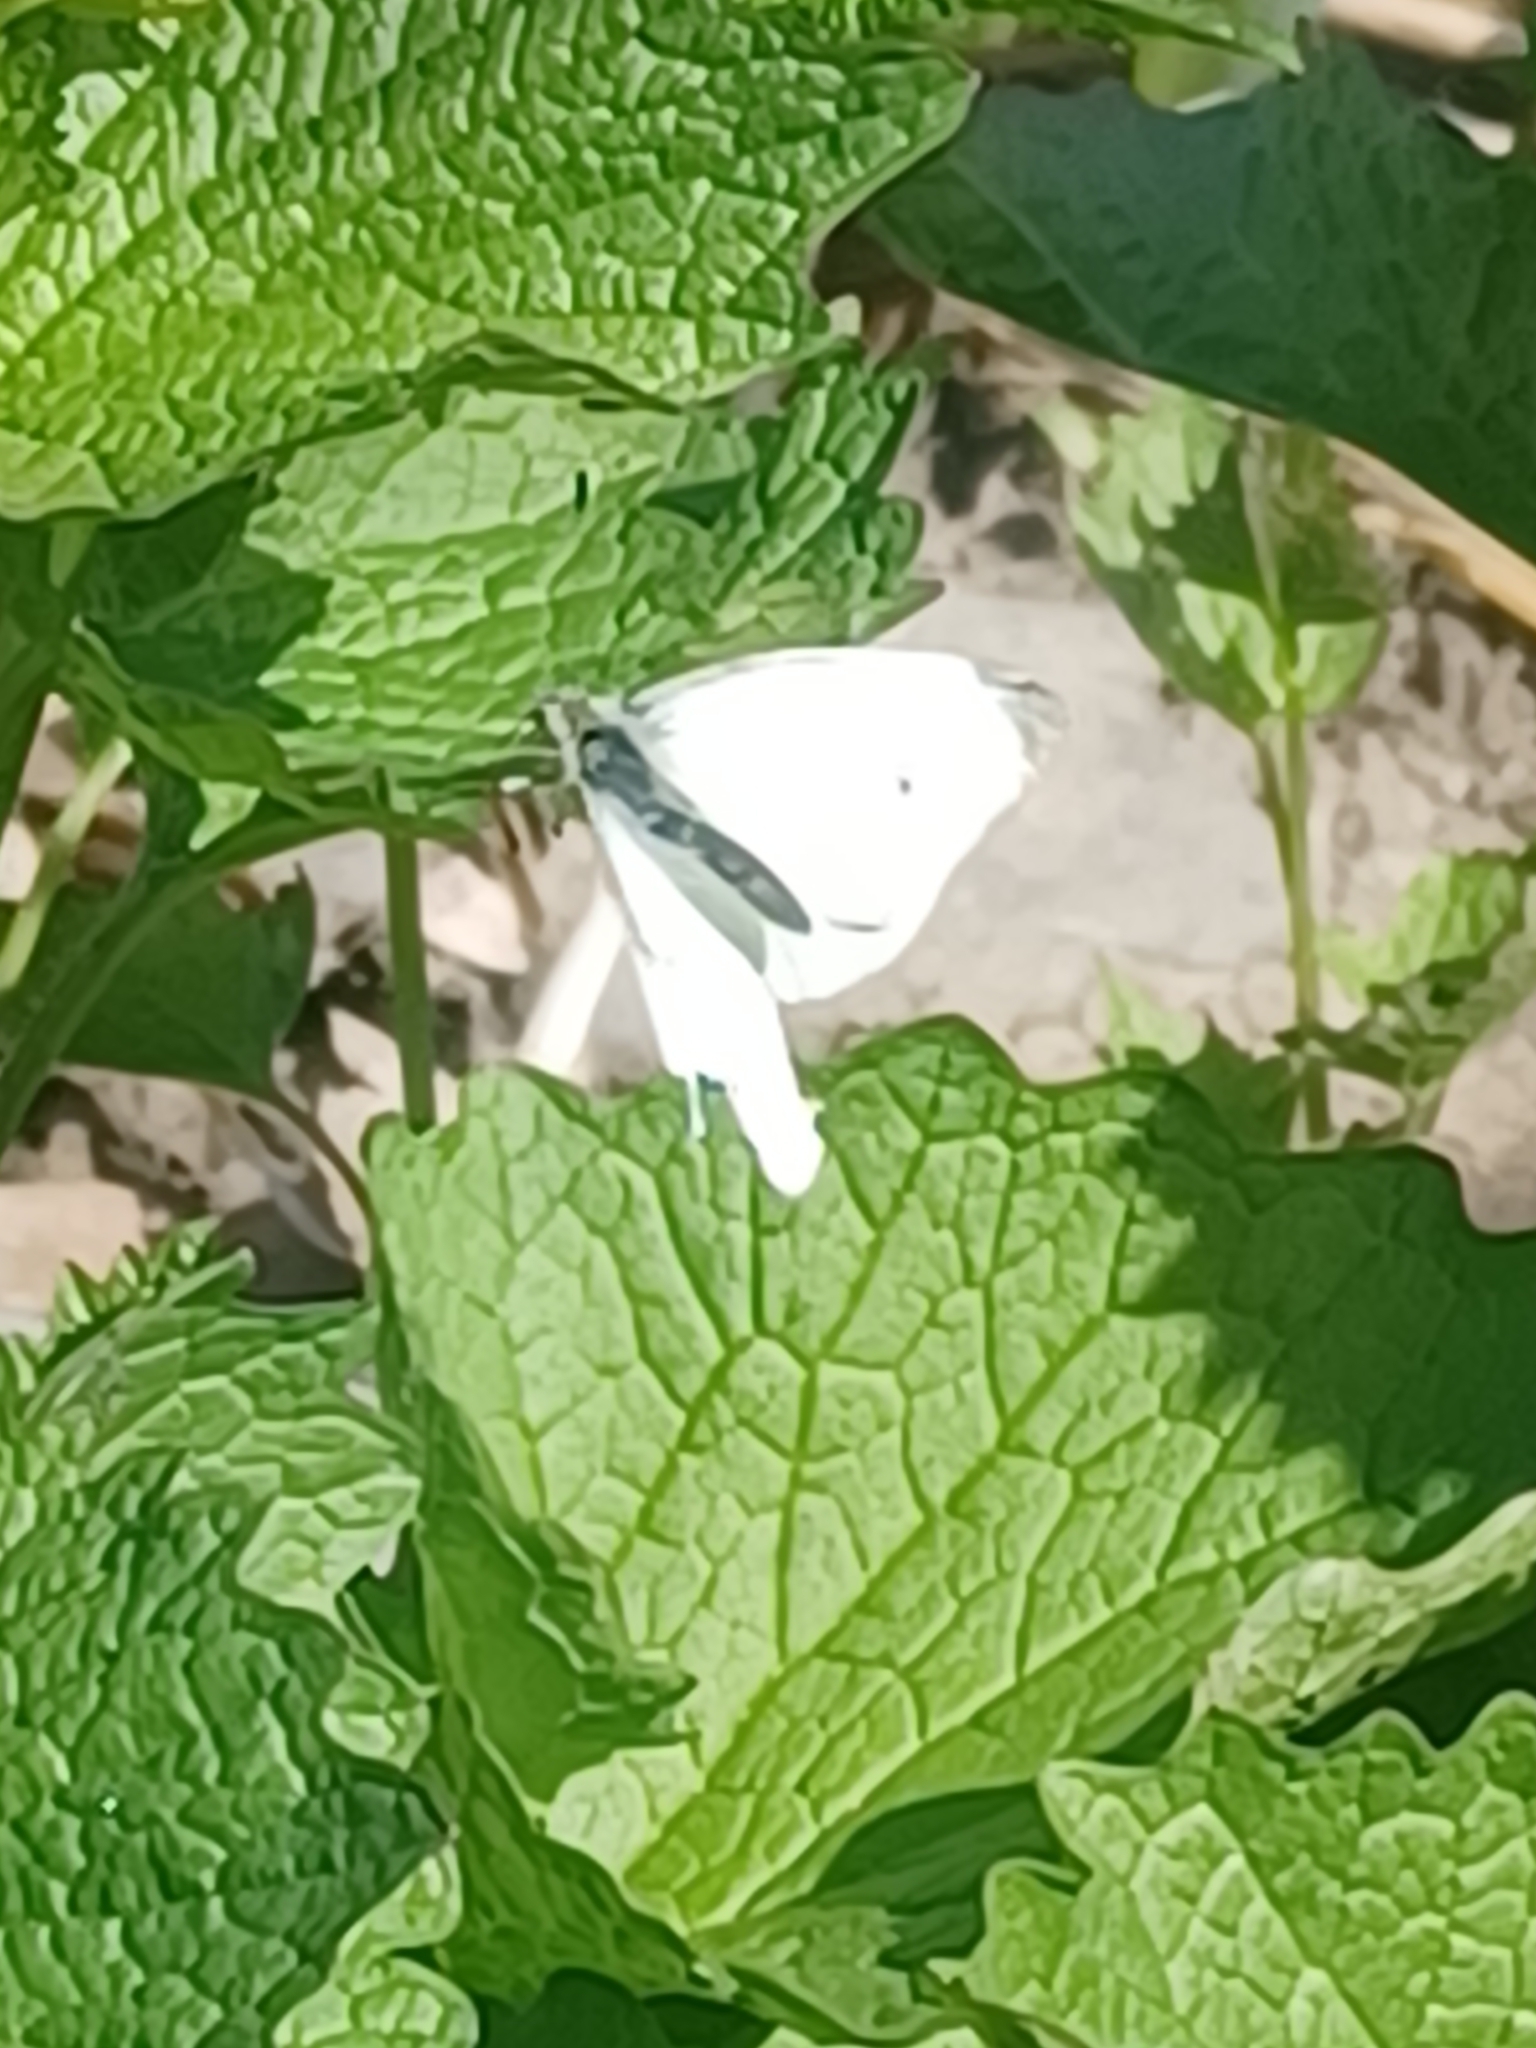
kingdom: Animalia
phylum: Arthropoda
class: Insecta
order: Lepidoptera
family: Pieridae
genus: Pieris
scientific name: Pieris rapae
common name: Small white
